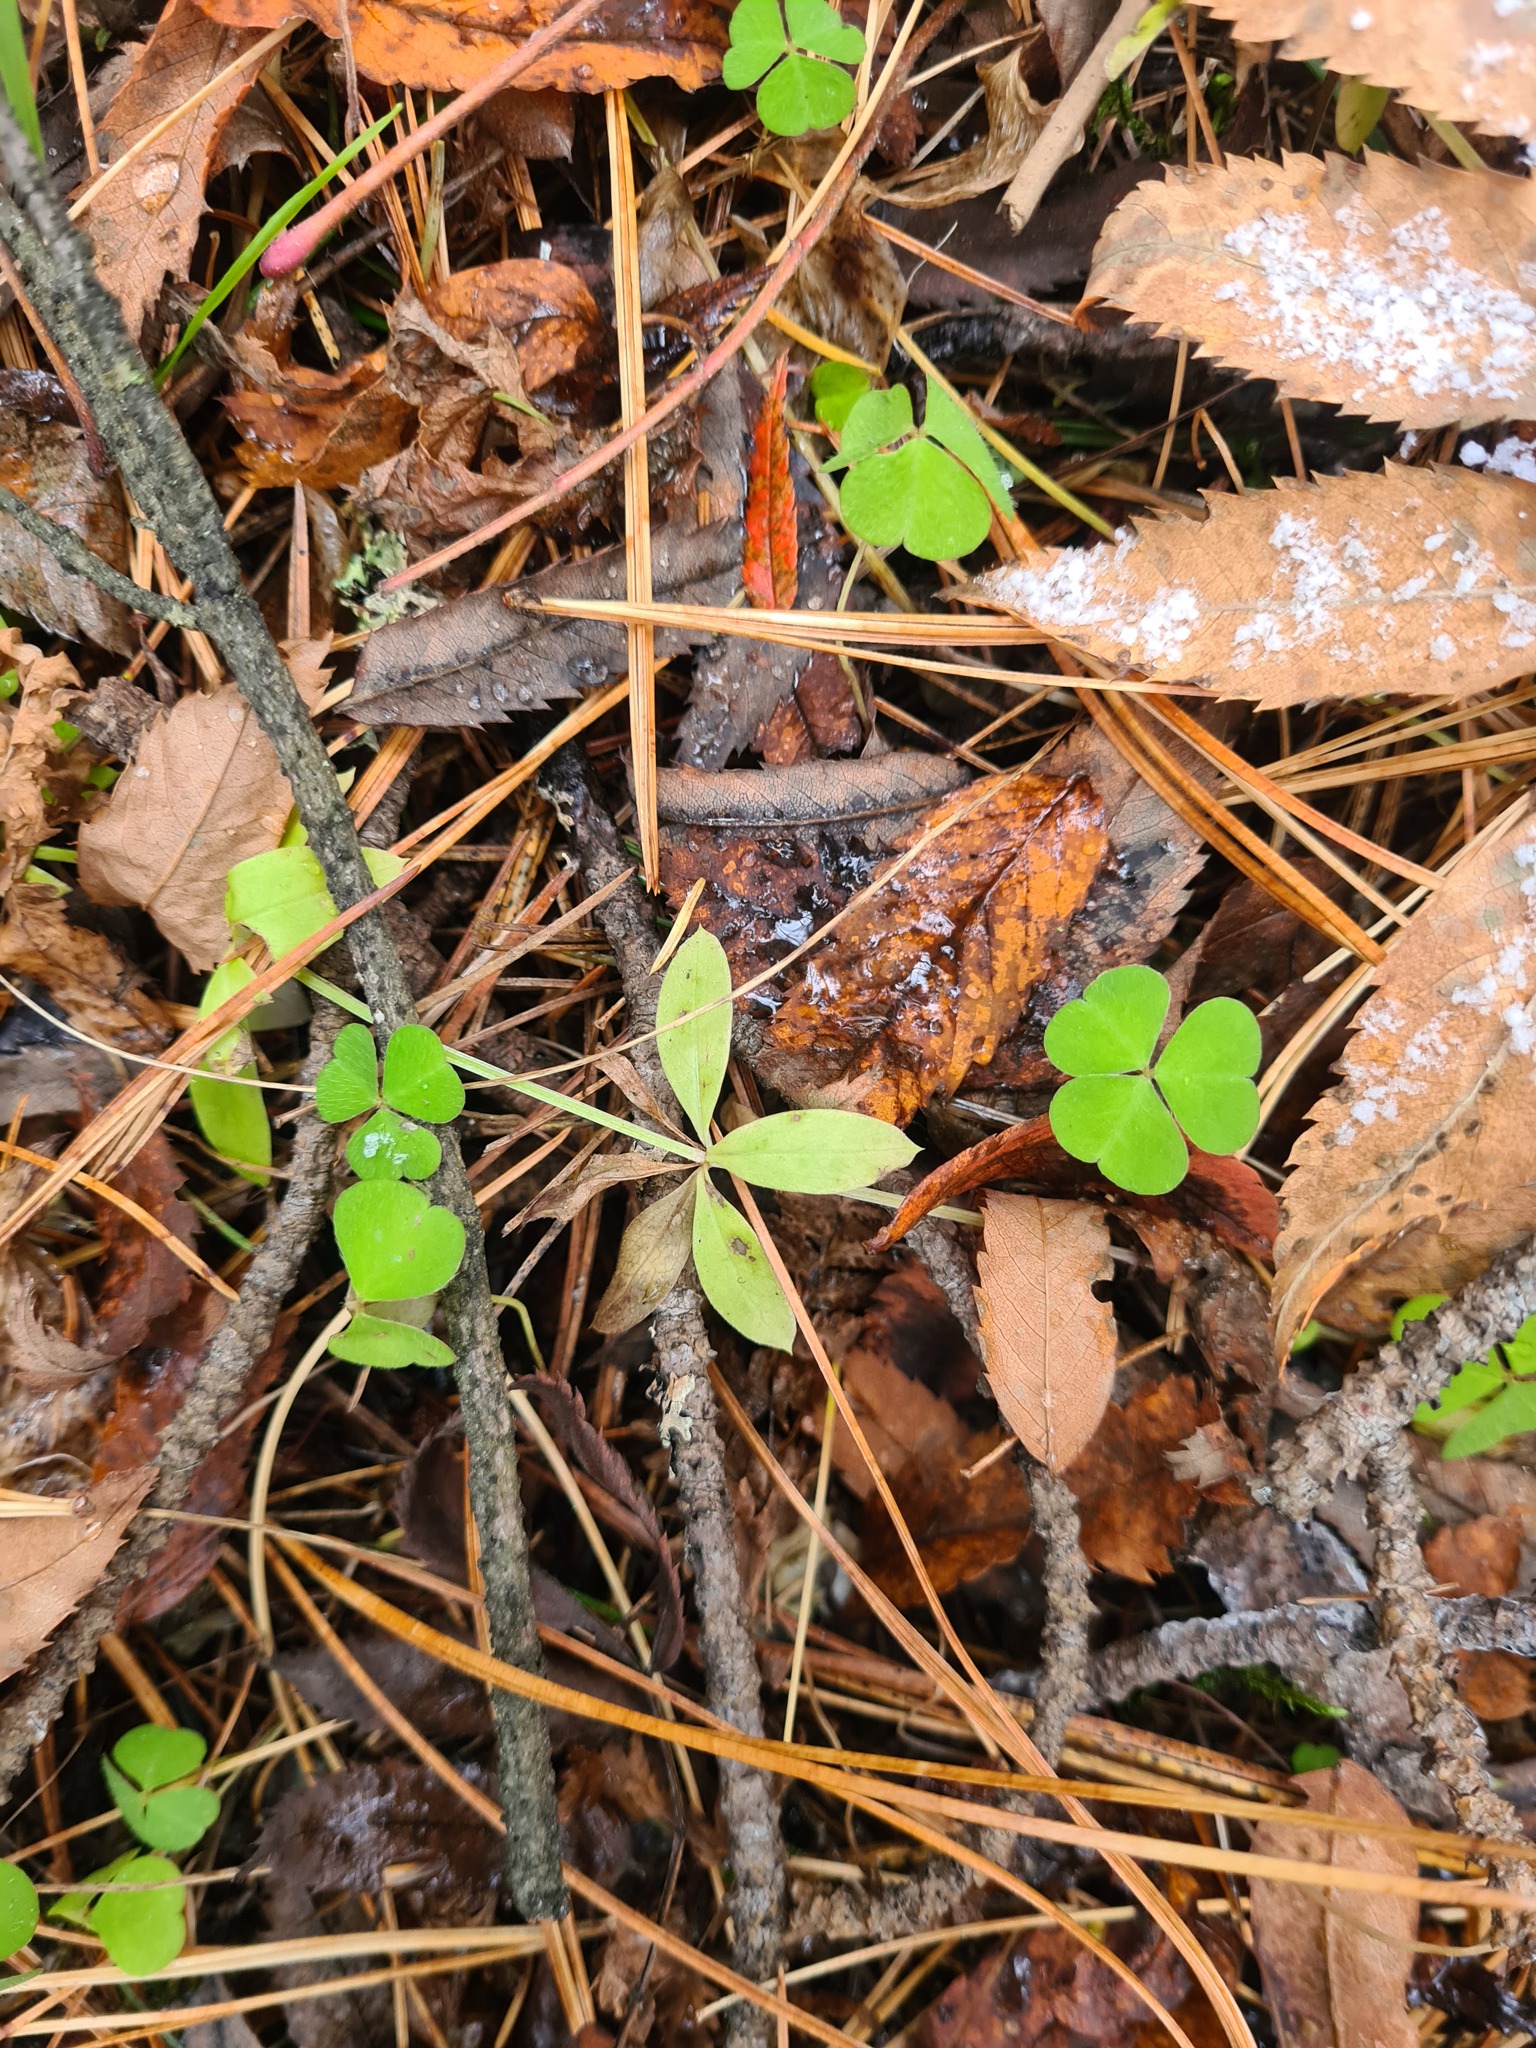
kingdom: Plantae
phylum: Tracheophyta
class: Magnoliopsida
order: Gentianales
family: Rubiaceae
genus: Galium
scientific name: Galium triflorum
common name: Fragrant bedstraw
